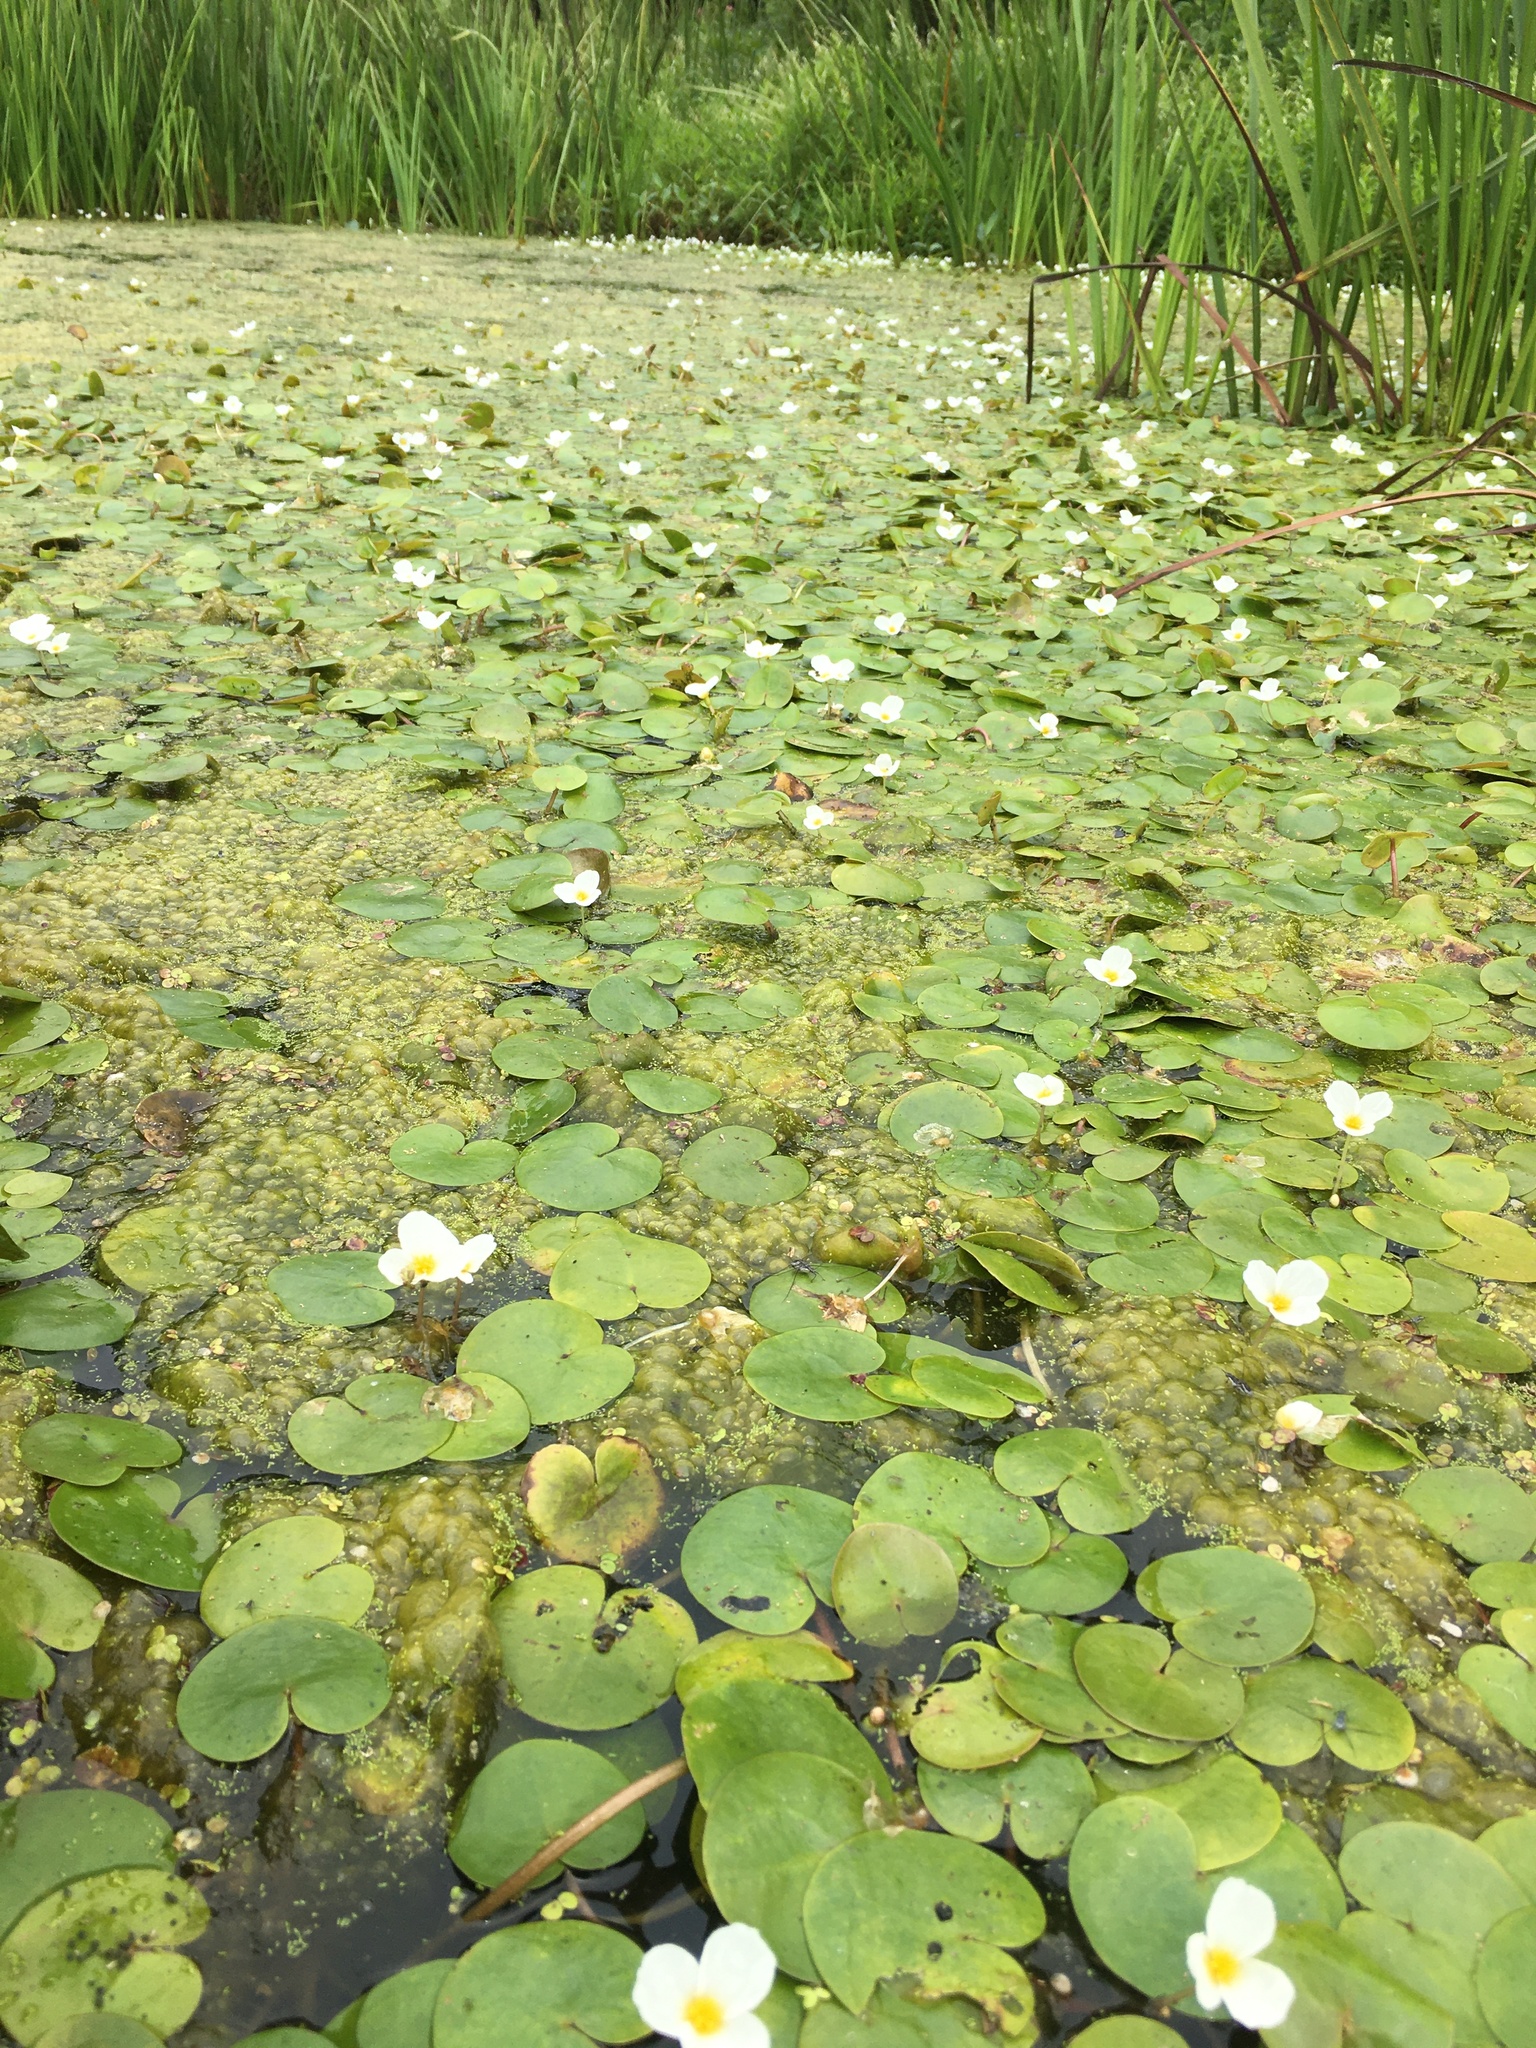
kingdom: Plantae
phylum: Tracheophyta
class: Liliopsida
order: Alismatales
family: Hydrocharitaceae
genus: Hydrocharis
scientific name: Hydrocharis morsus-ranae
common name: Frogbit
